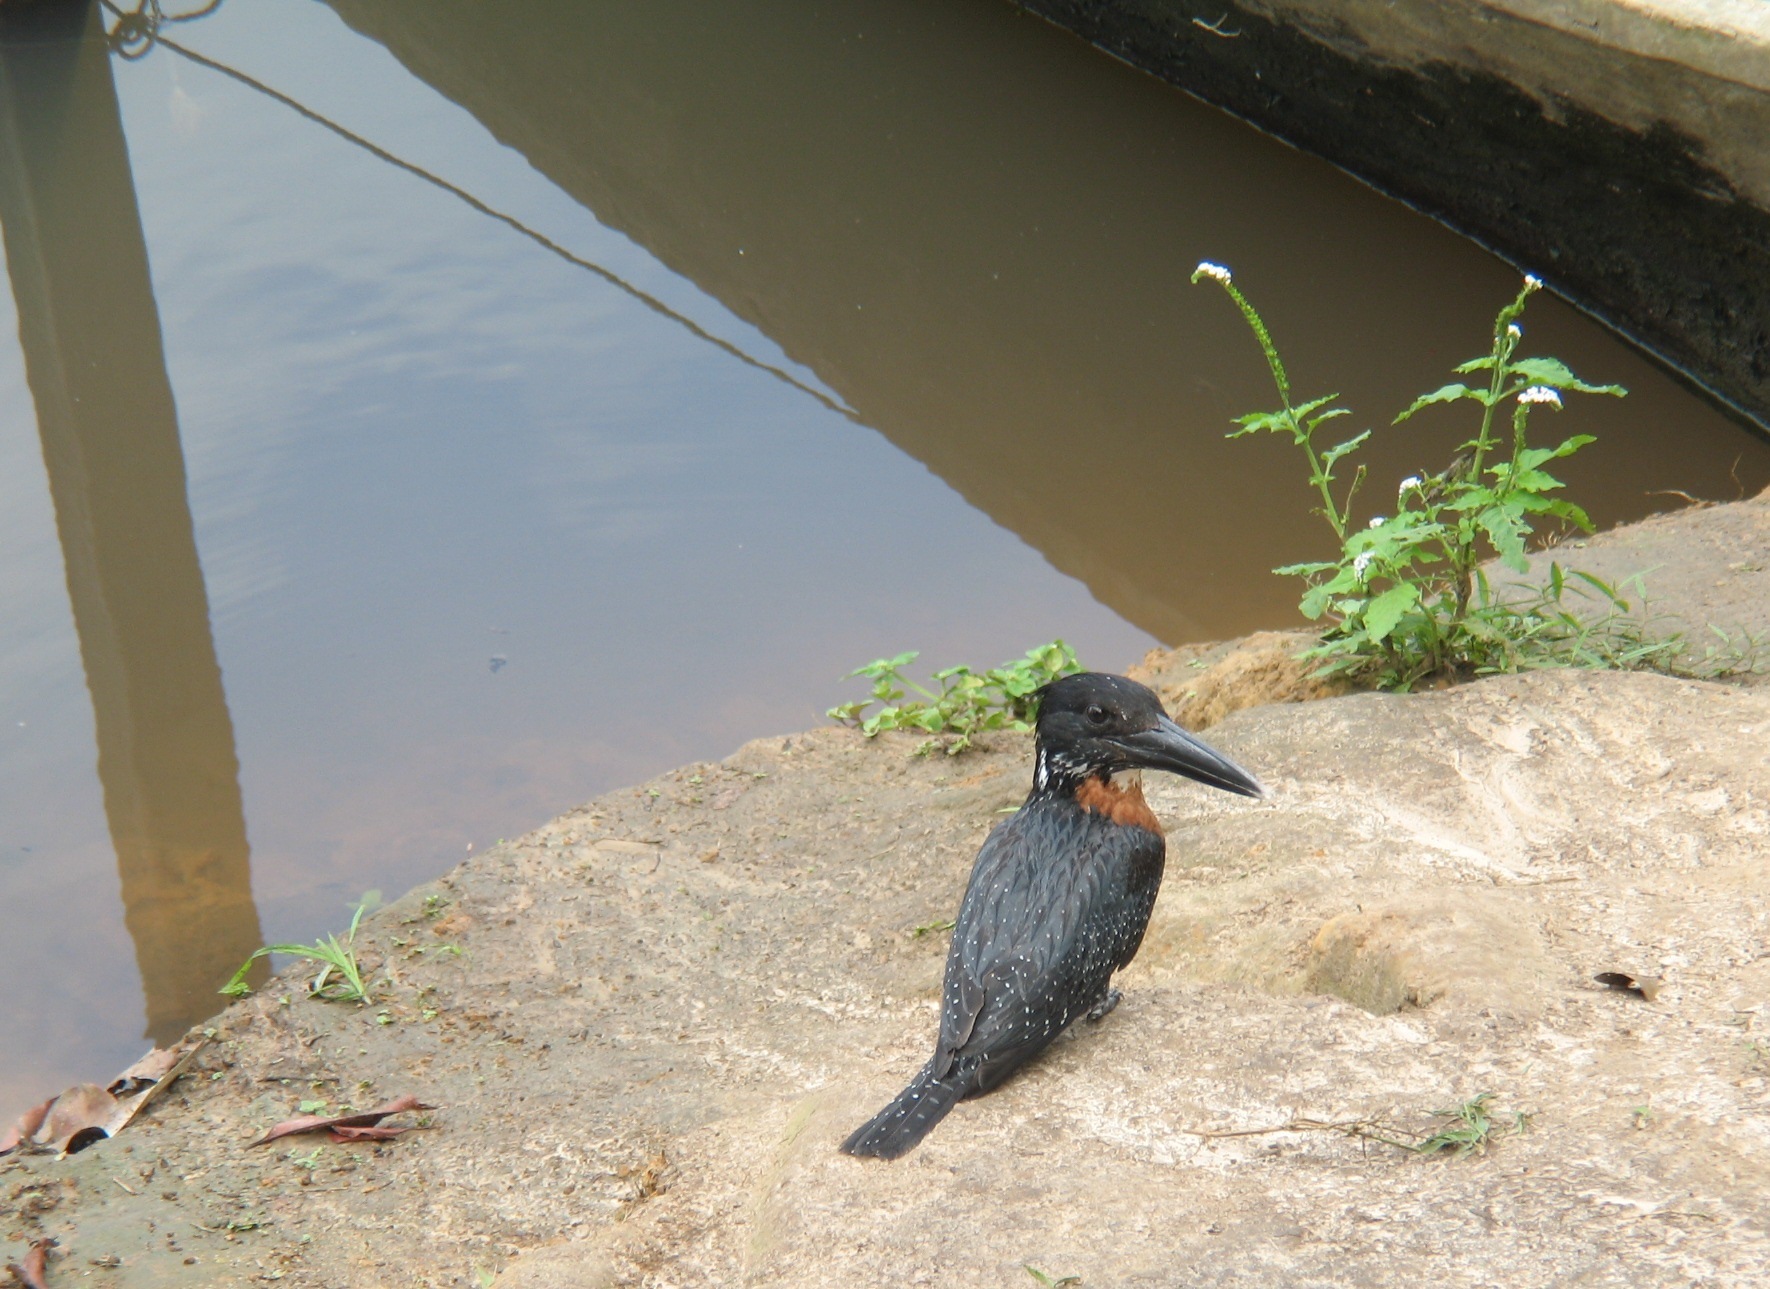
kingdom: Animalia
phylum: Chordata
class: Aves
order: Coraciiformes
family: Alcedinidae
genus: Megaceryle
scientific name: Megaceryle maxima
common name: Giant kingfisher
